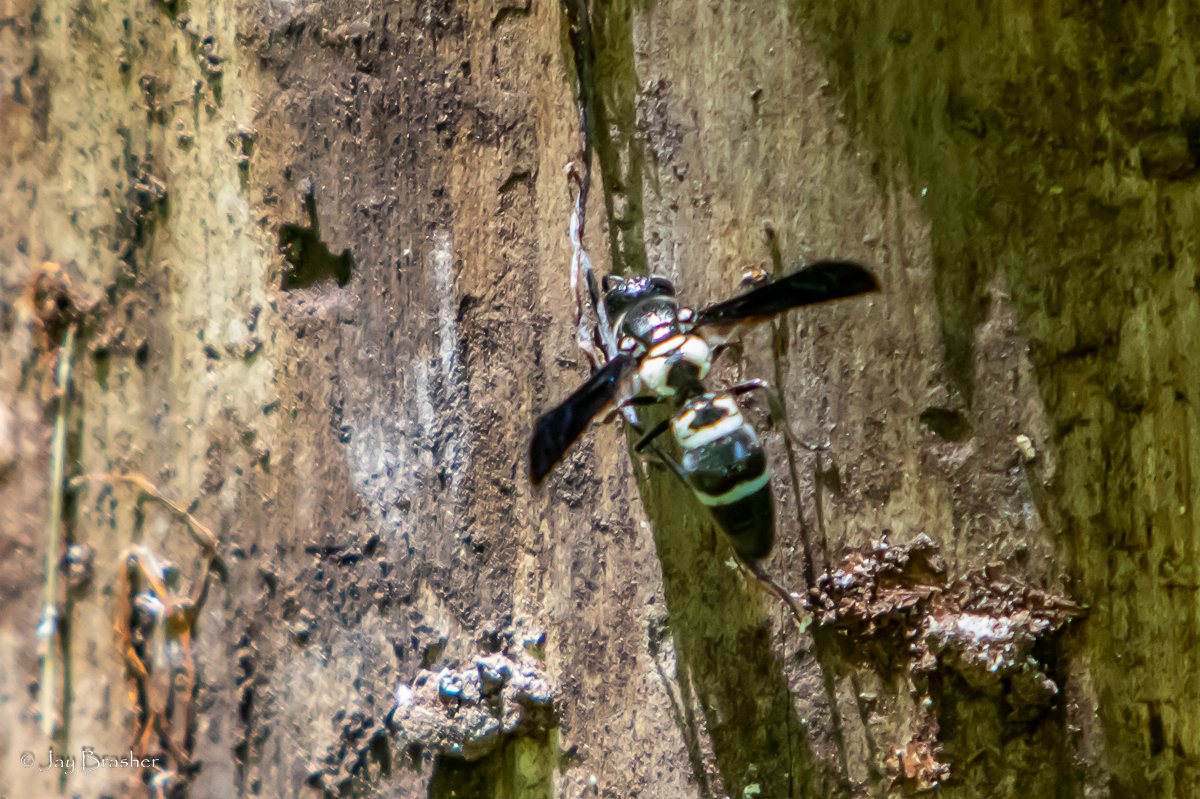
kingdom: Animalia
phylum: Arthropoda
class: Insecta
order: Hymenoptera
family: Eumenidae
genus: Pseudodynerus
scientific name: Pseudodynerus quadrisectus
